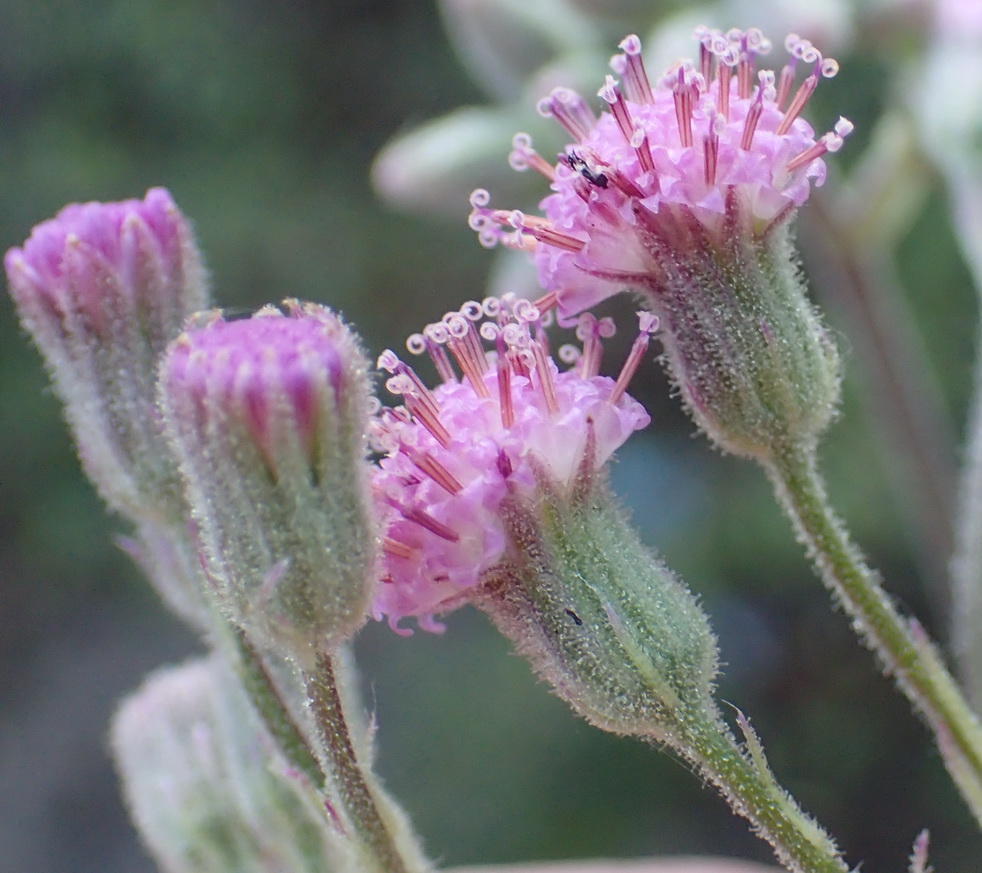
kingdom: Plantae
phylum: Tracheophyta
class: Magnoliopsida
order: Asterales
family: Asteraceae
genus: Senecio
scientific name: Senecio purpureus
